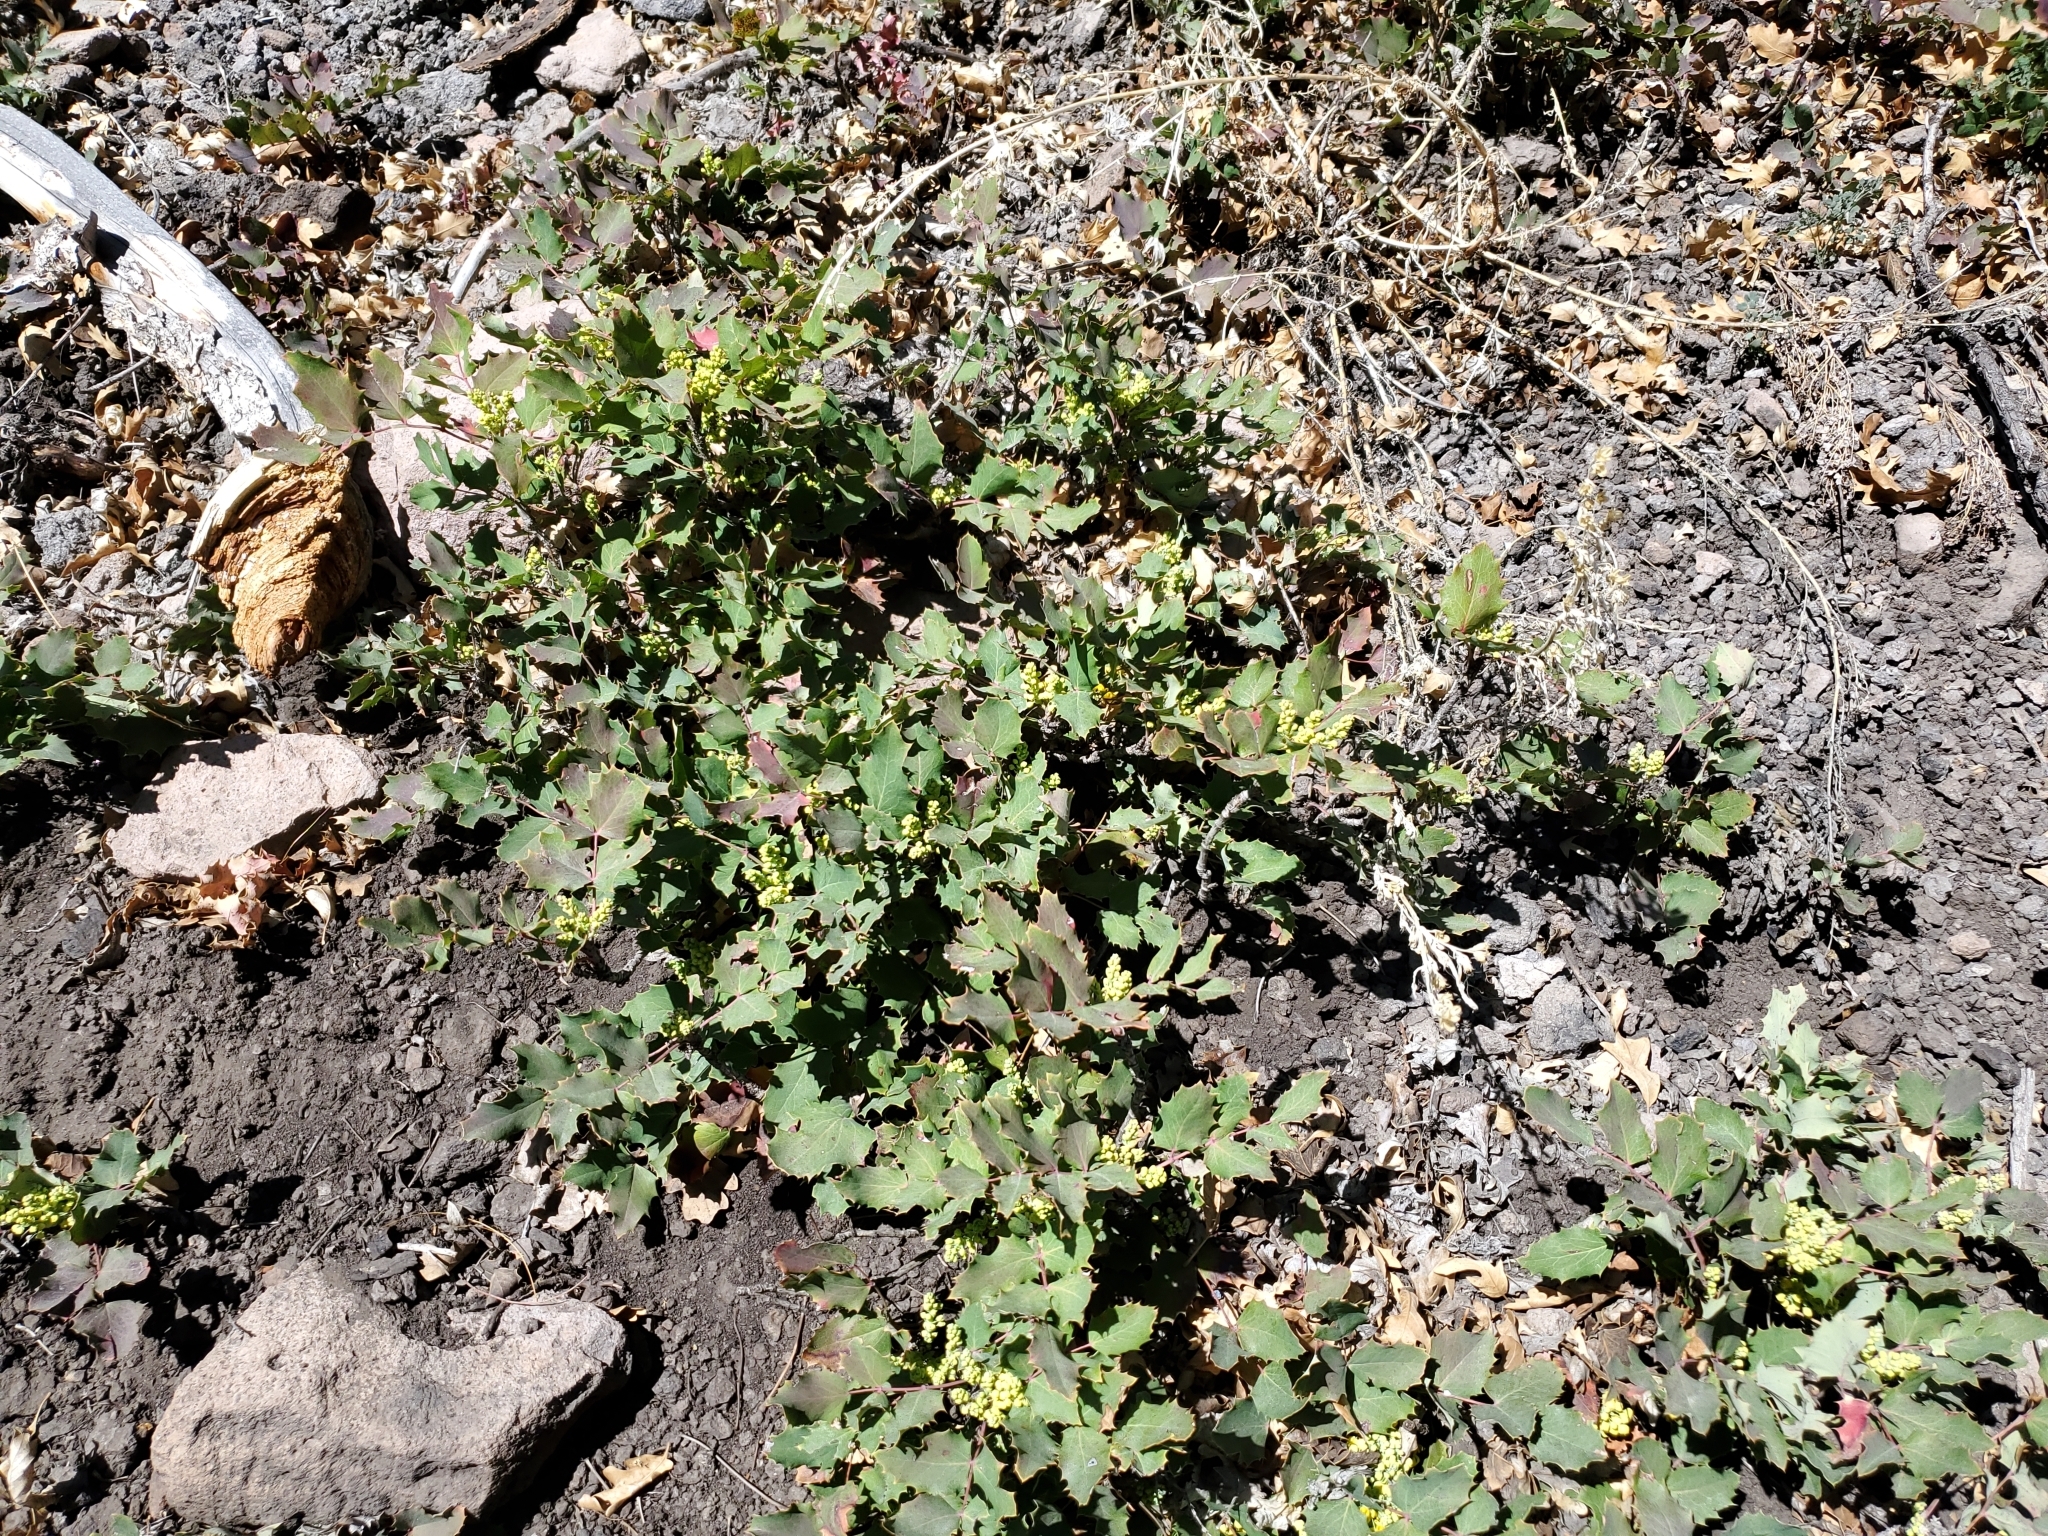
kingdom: Plantae
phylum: Tracheophyta
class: Magnoliopsida
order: Ranunculales
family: Berberidaceae
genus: Mahonia
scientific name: Mahonia repens
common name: Creeping oregon-grape
